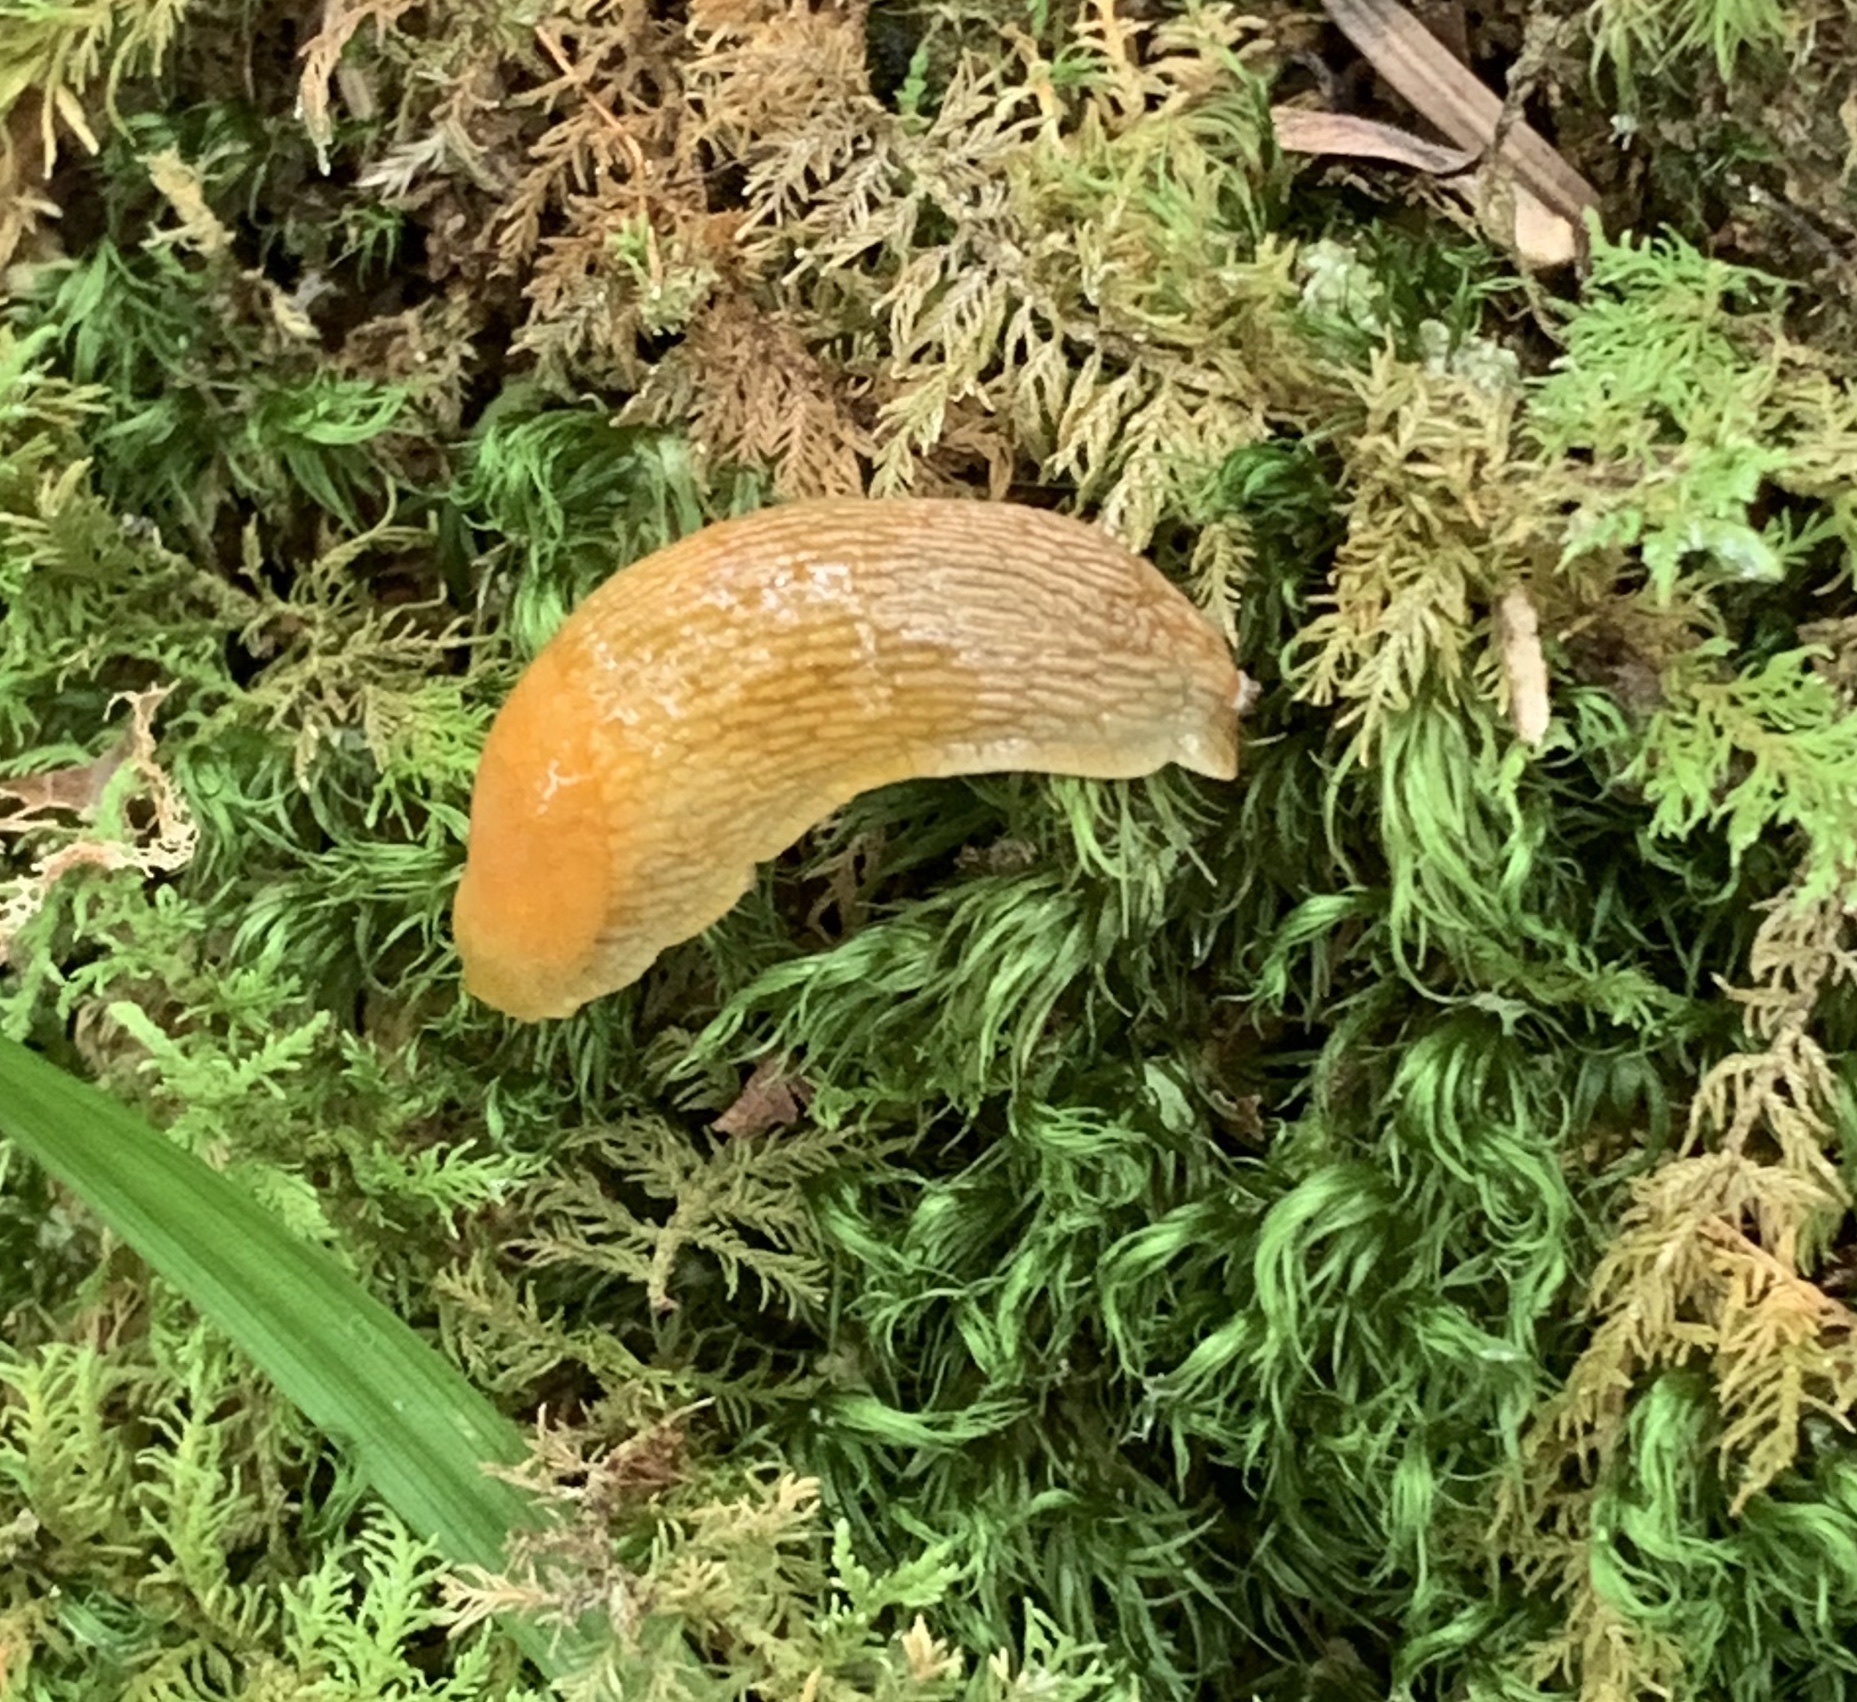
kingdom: Animalia
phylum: Mollusca
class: Gastropoda
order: Stylommatophora
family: Arionidae
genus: Arion
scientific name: Arion subfuscus
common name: Dusky arion
